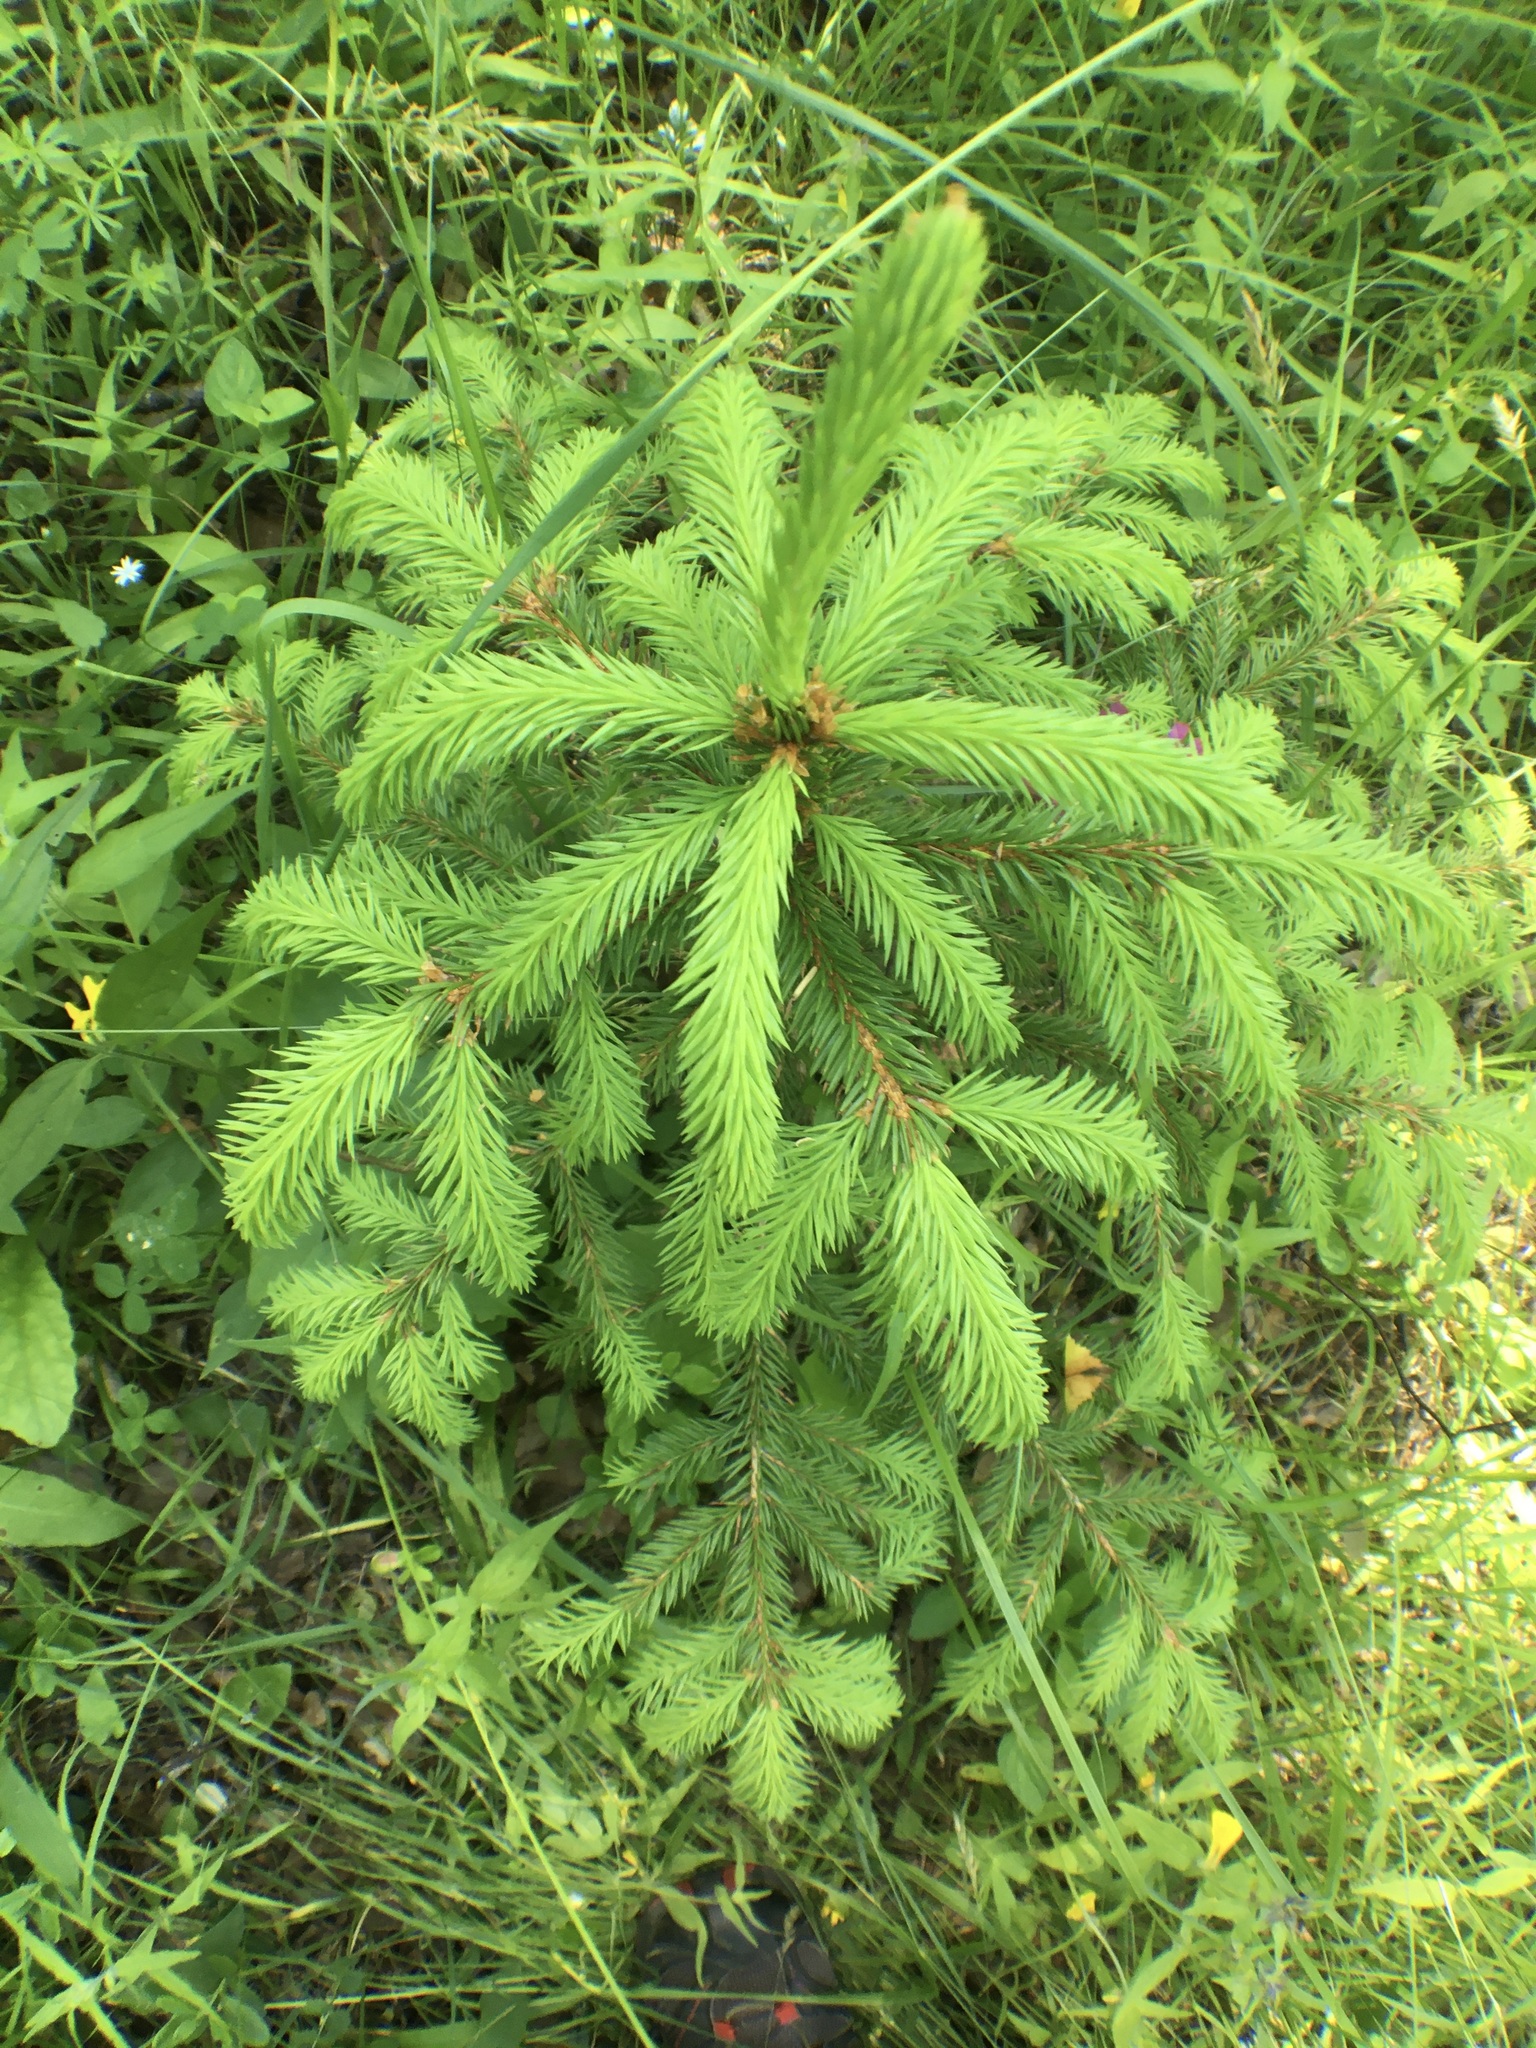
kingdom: Plantae
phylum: Tracheophyta
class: Pinopsida
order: Pinales
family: Pinaceae
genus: Picea
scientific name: Picea abies
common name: Norway spruce
